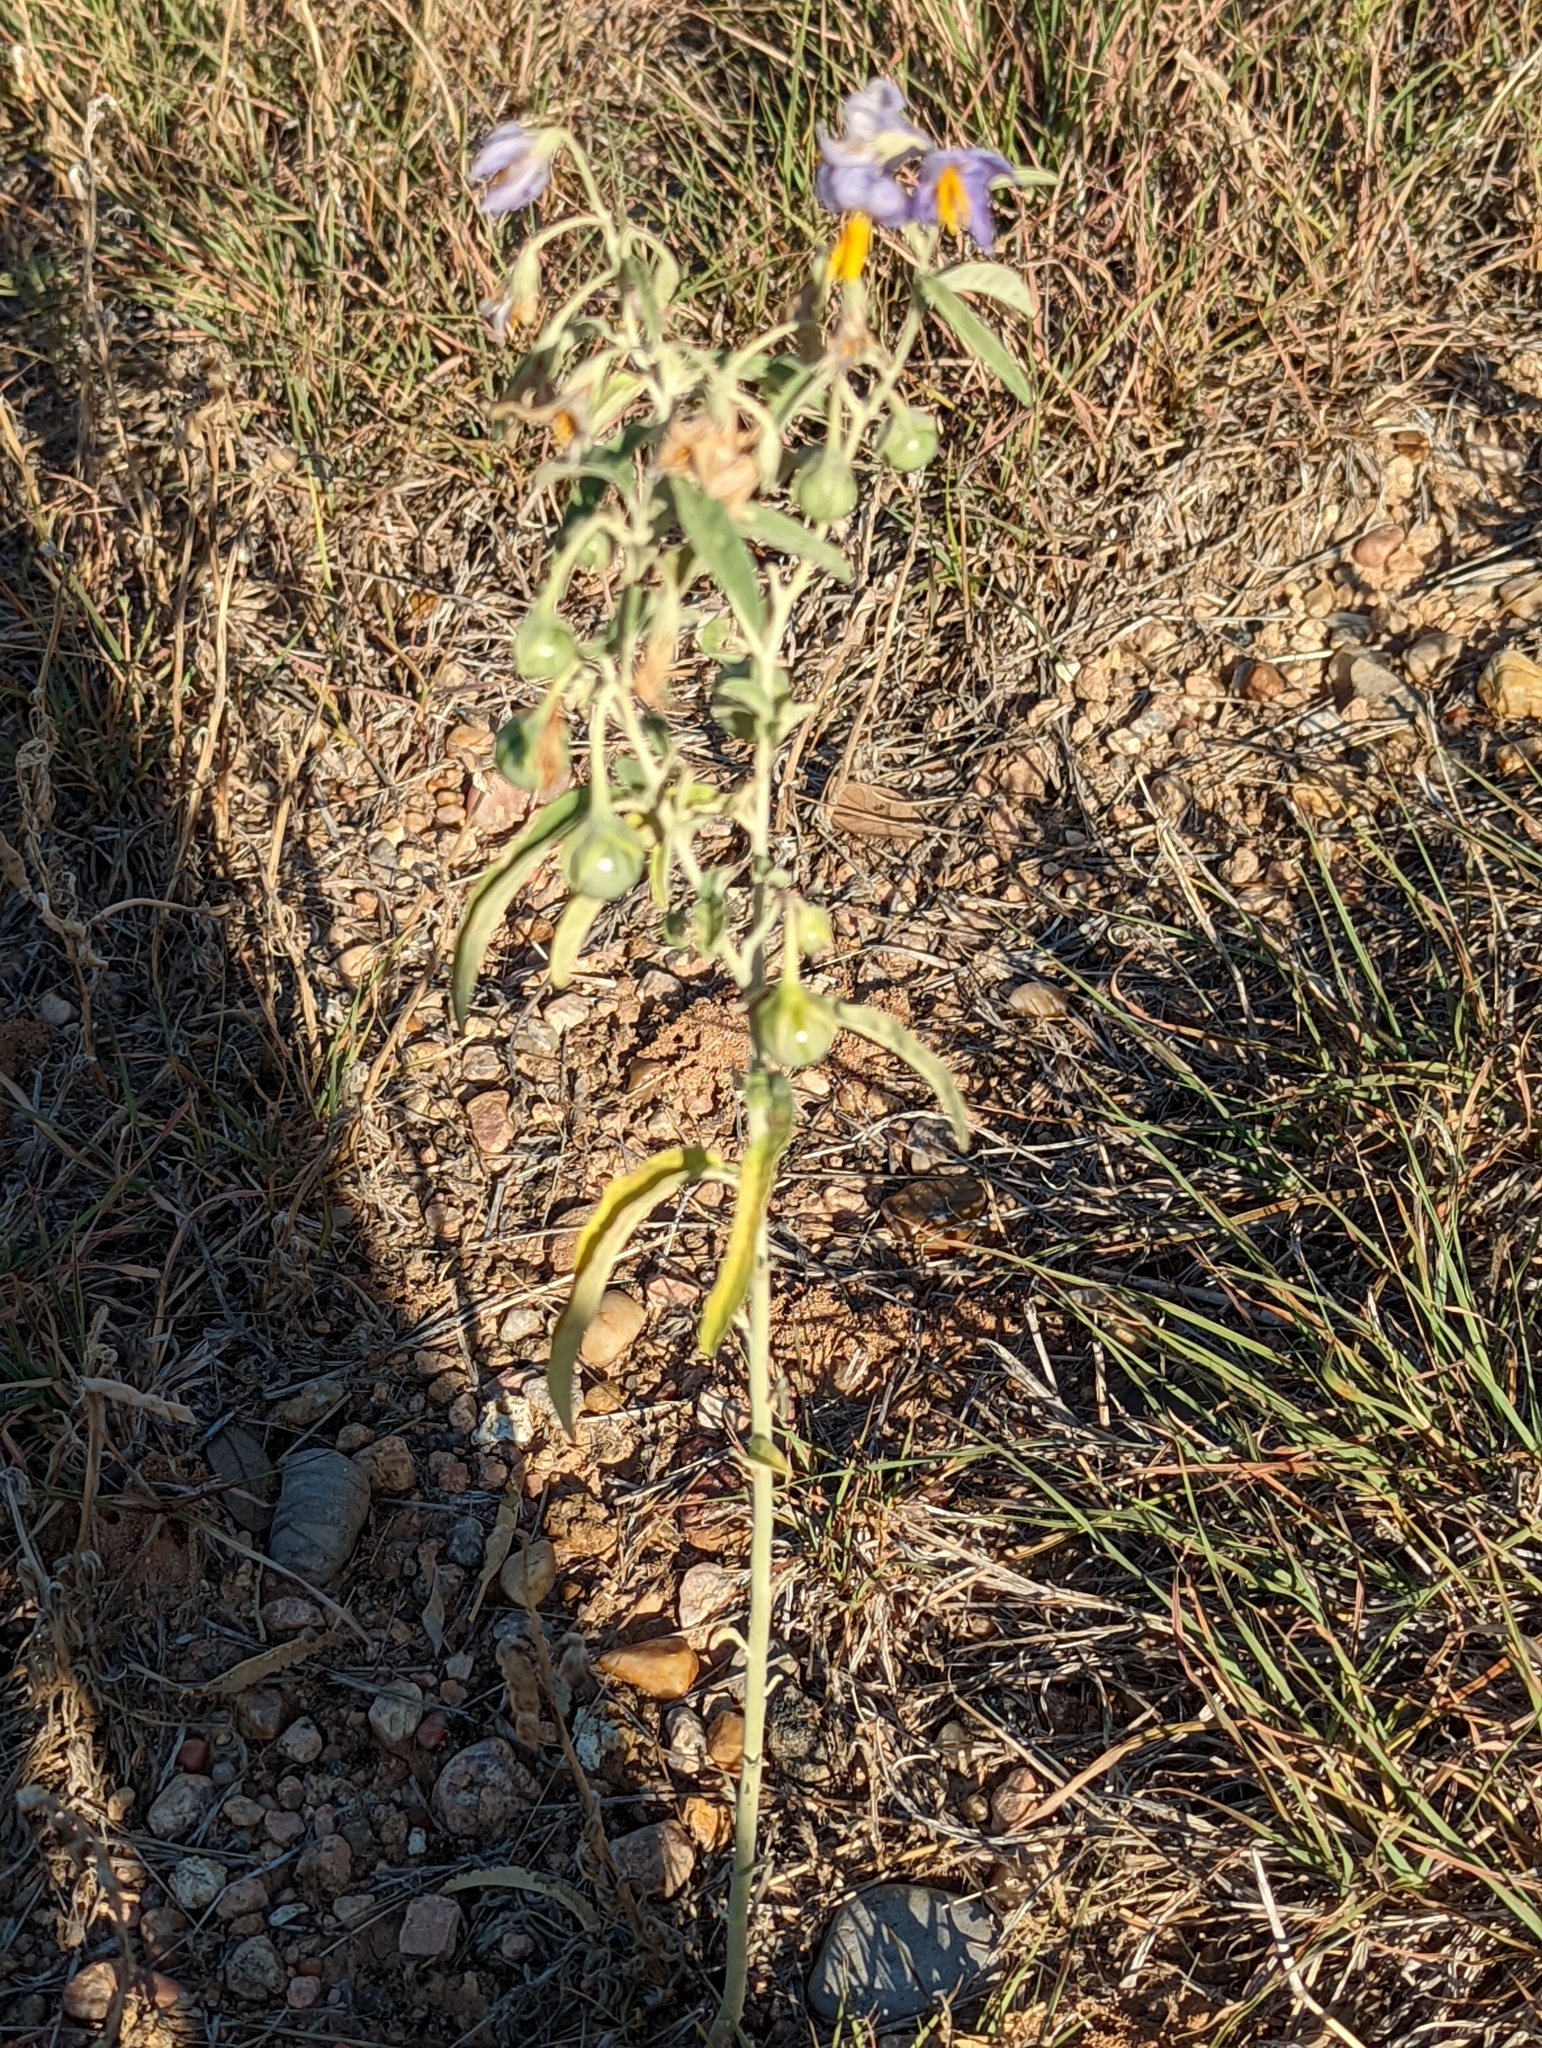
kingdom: Plantae
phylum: Tracheophyta
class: Magnoliopsida
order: Solanales
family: Solanaceae
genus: Solanum
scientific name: Solanum elaeagnifolium
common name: Silverleaf nightshade
